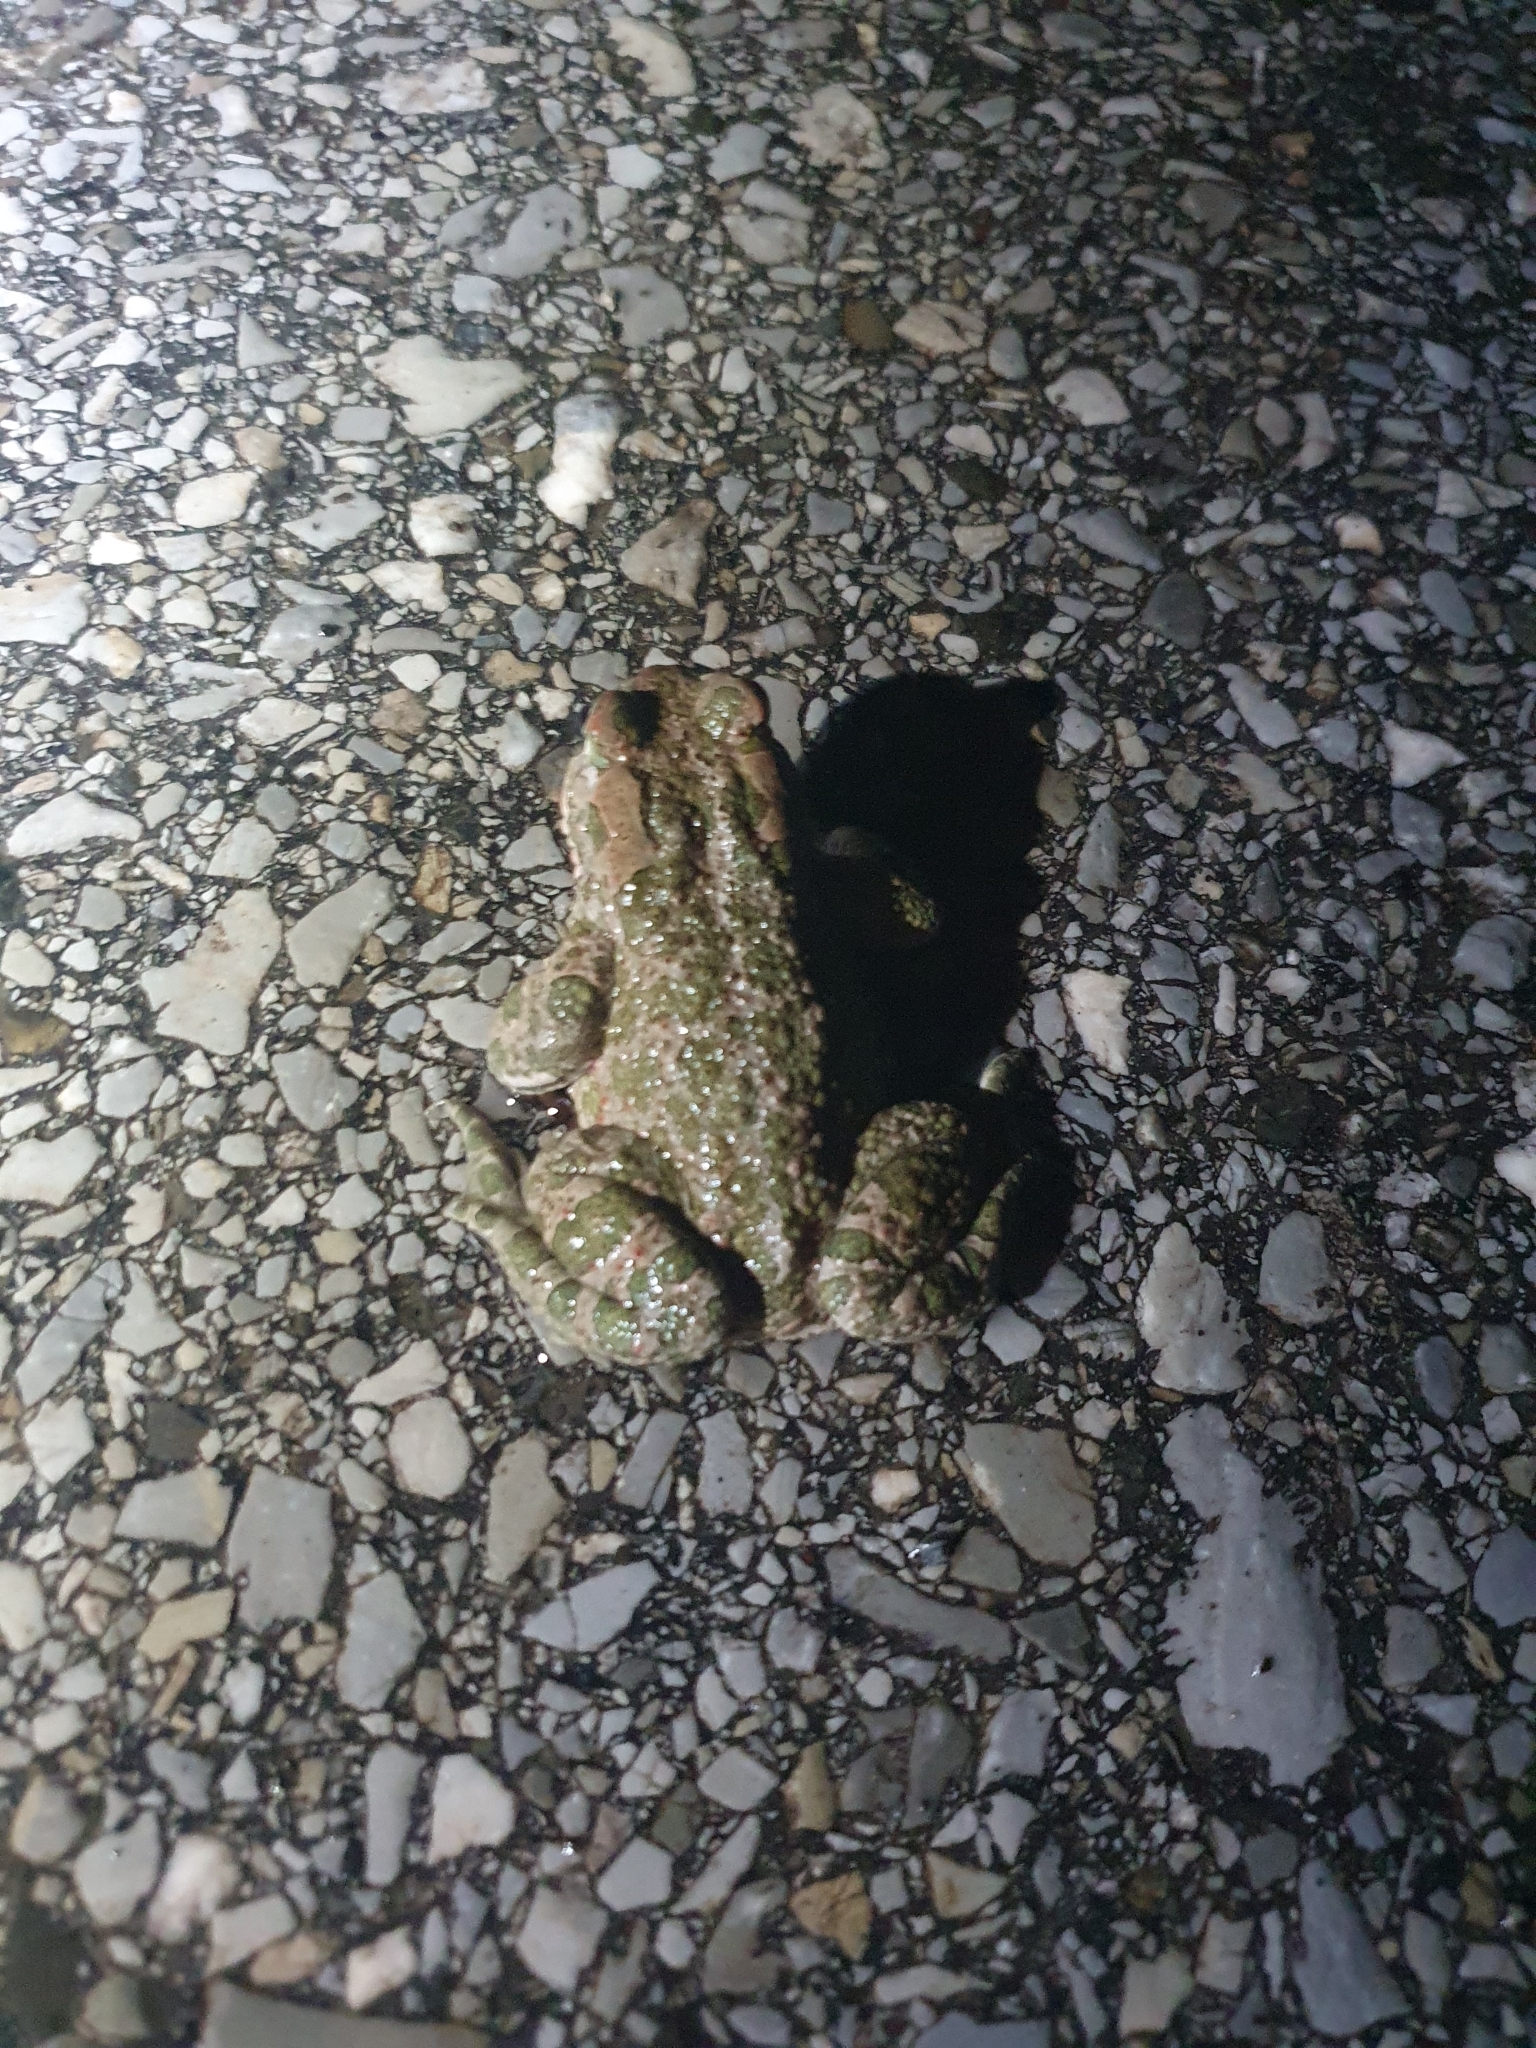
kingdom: Animalia
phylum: Chordata
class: Amphibia
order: Anura
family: Bufonidae
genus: Bufotes
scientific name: Bufotes viridis
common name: European green toad
